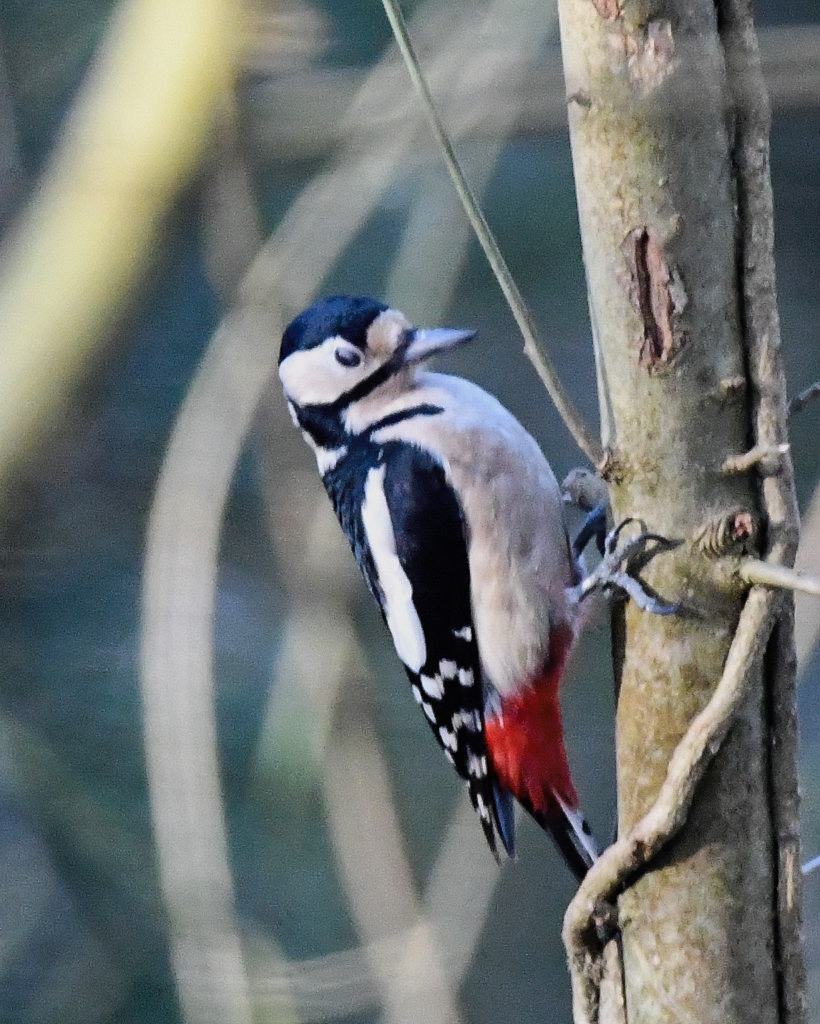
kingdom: Animalia
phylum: Chordata
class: Aves
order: Piciformes
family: Picidae
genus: Dendrocopos
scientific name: Dendrocopos major
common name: Great spotted woodpecker
